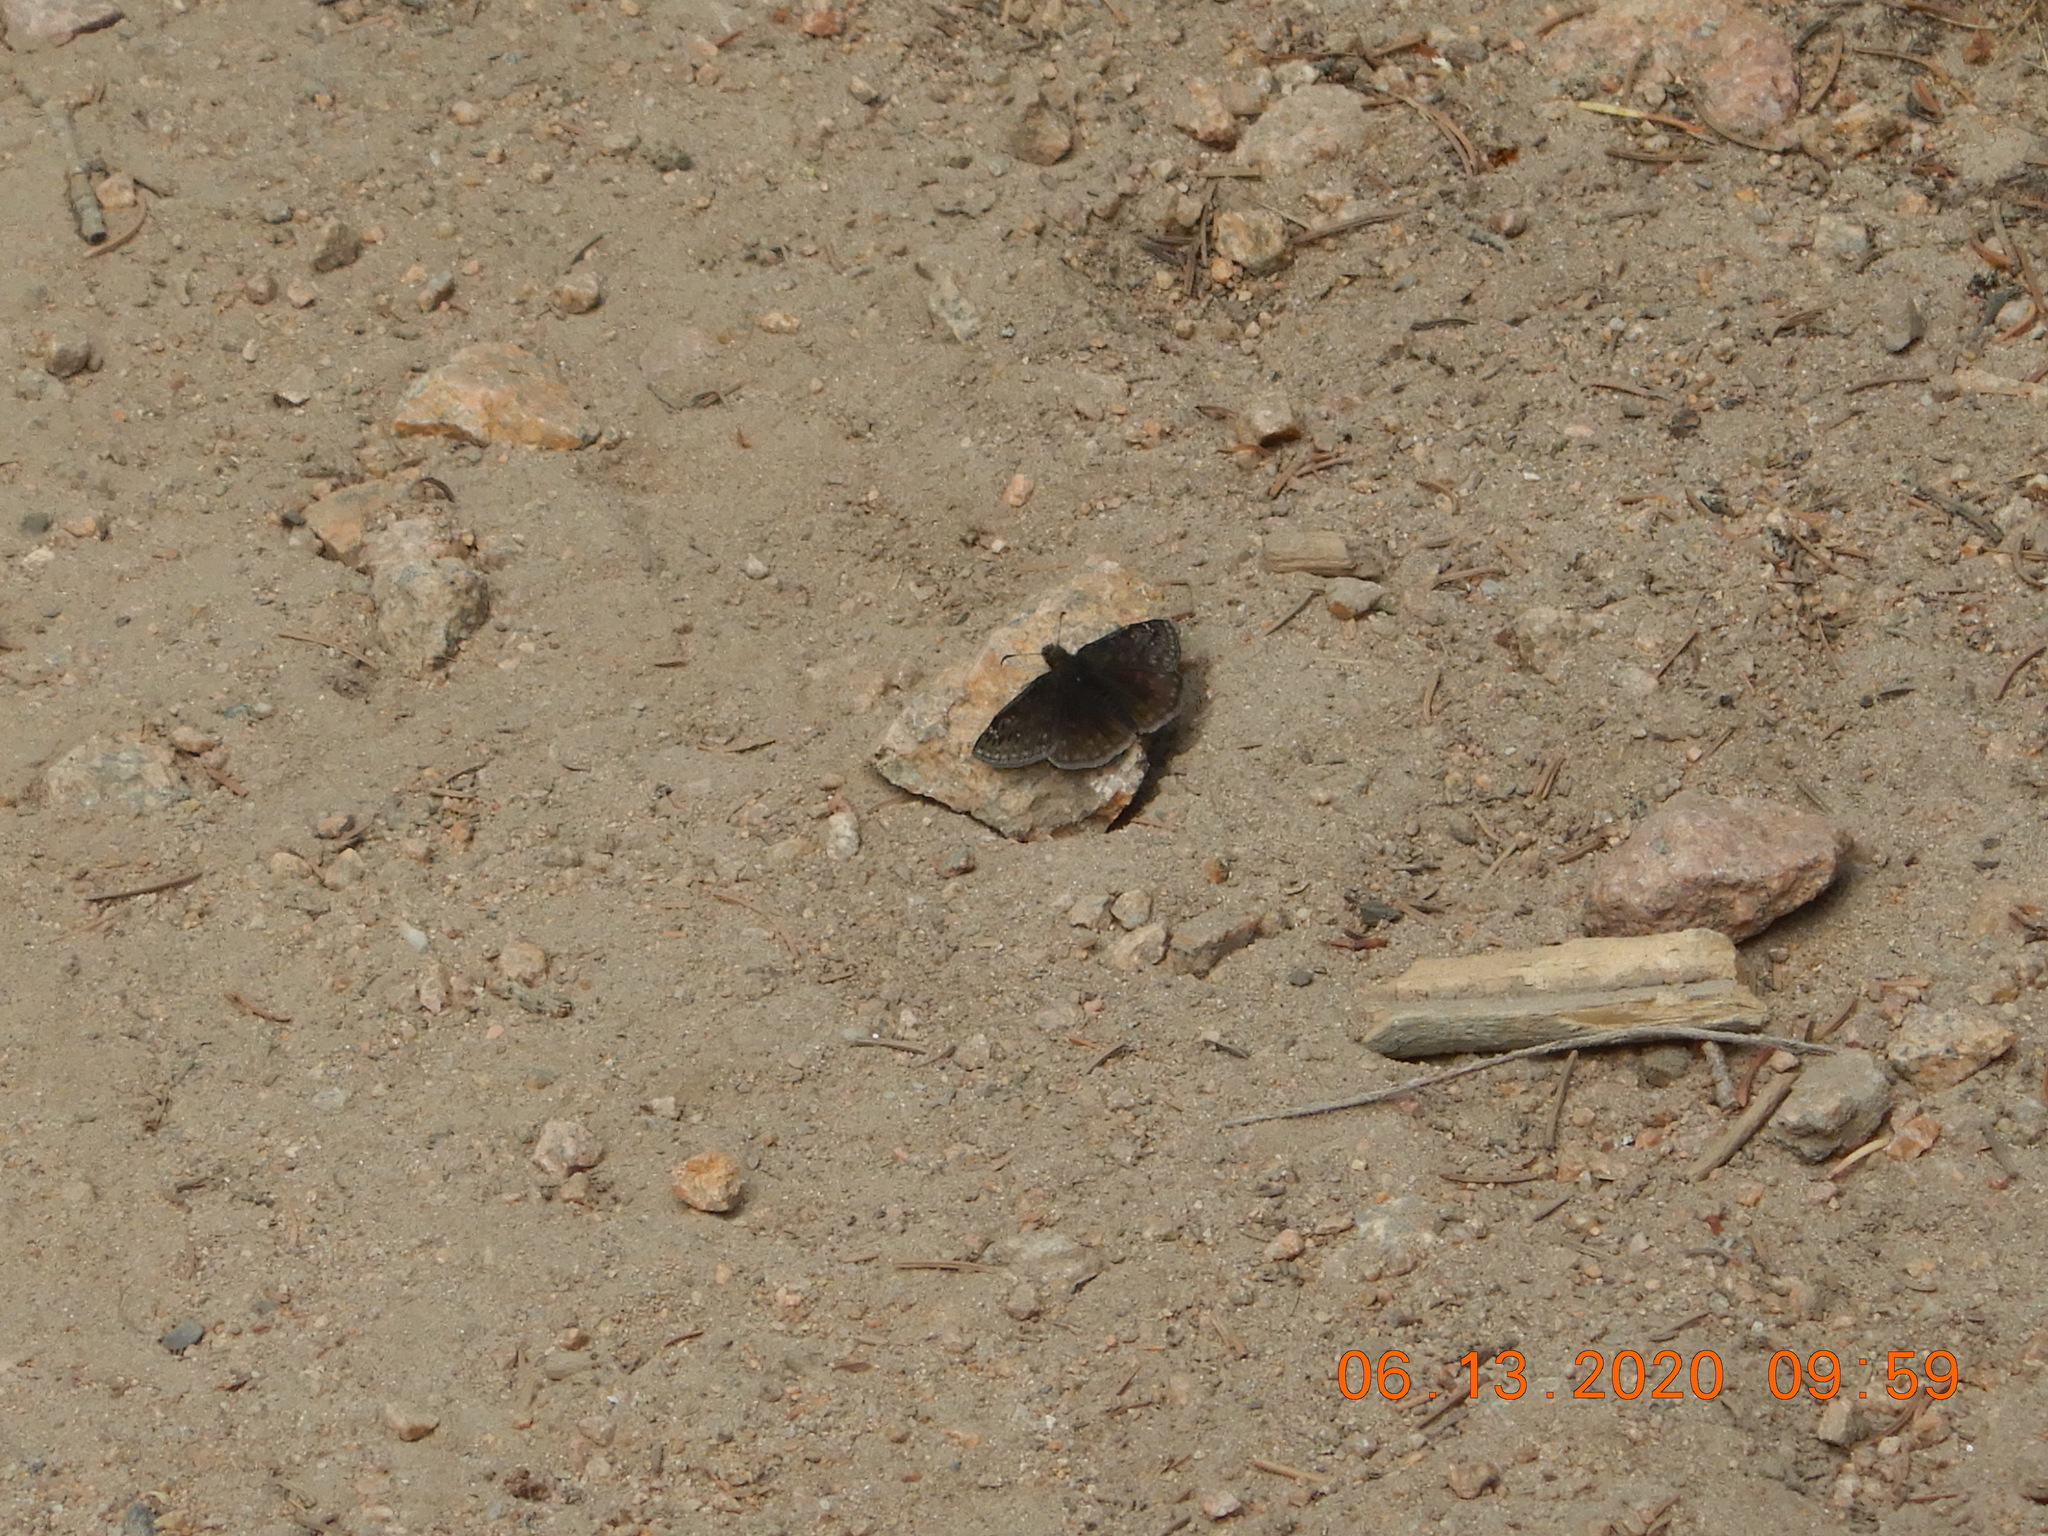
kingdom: Animalia
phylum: Arthropoda
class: Insecta
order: Lepidoptera
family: Hesperiidae
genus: Erynnis
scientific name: Erynnis persius
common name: Persius duskywing
